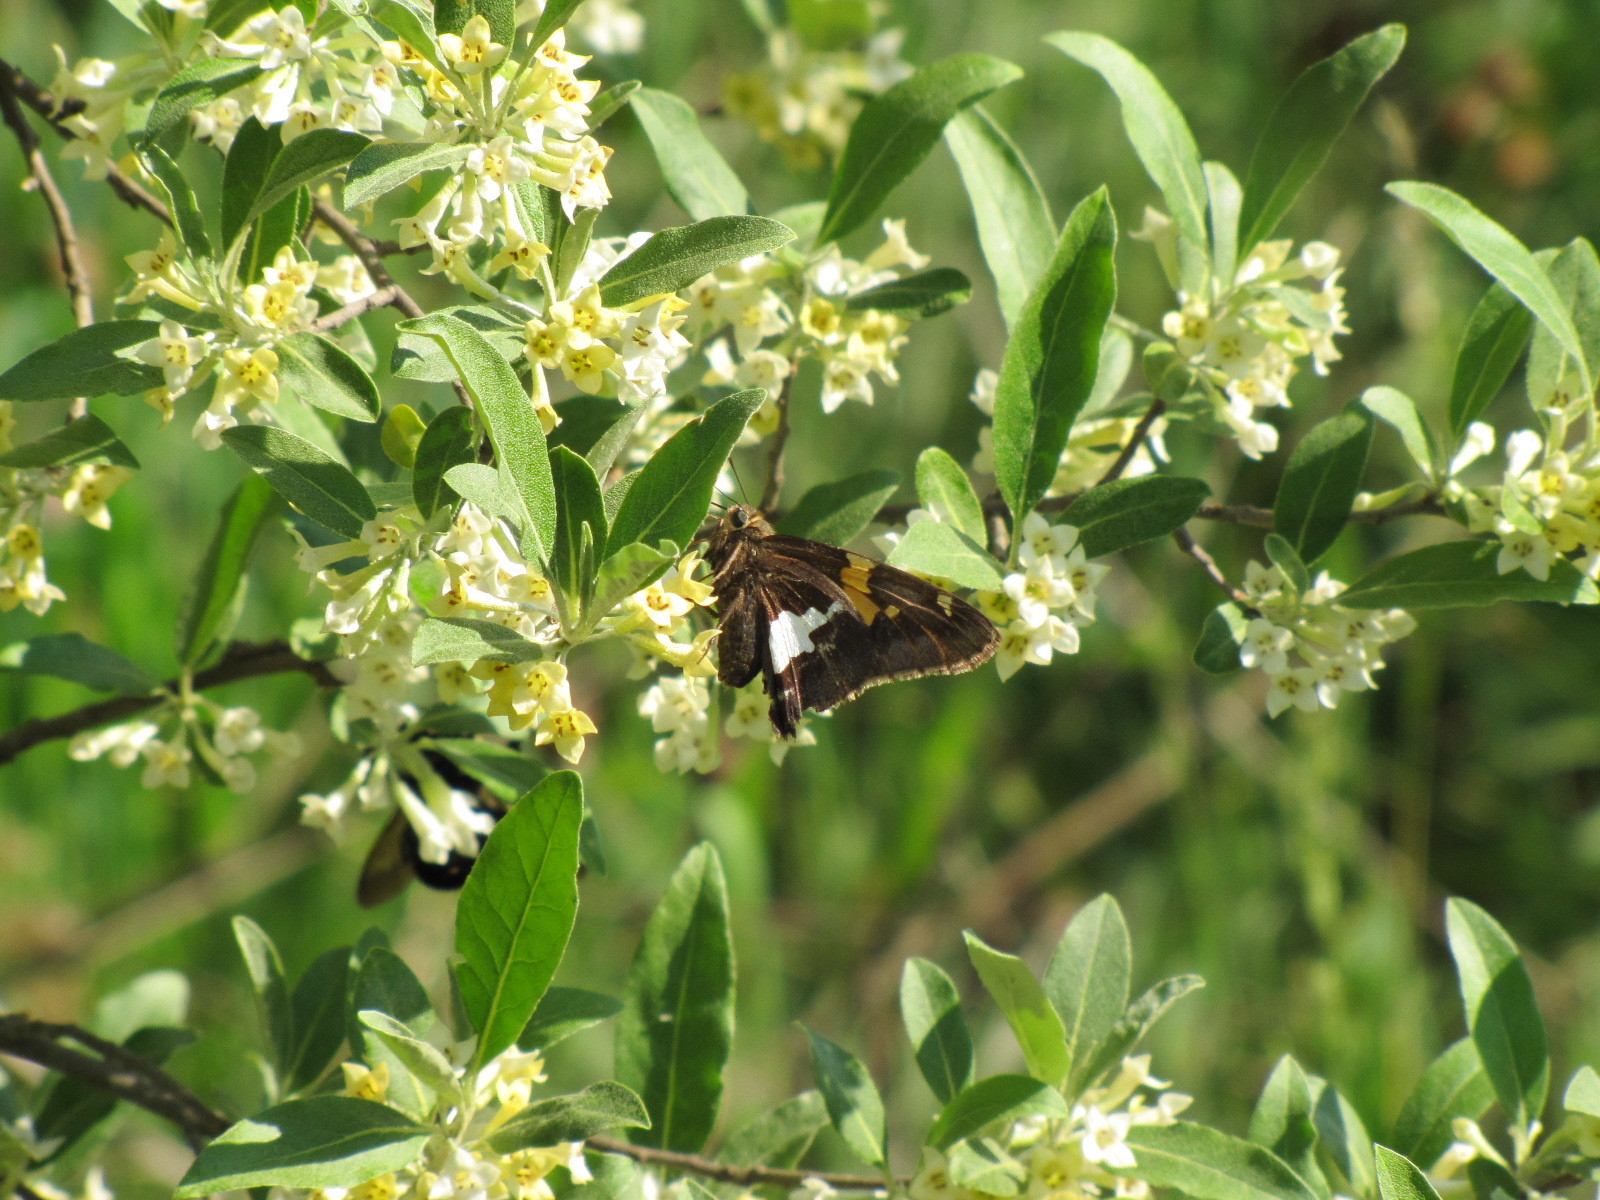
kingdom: Animalia
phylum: Arthropoda
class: Insecta
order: Lepidoptera
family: Hesperiidae
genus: Epargyreus
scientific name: Epargyreus clarus
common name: Silver-spotted skipper
